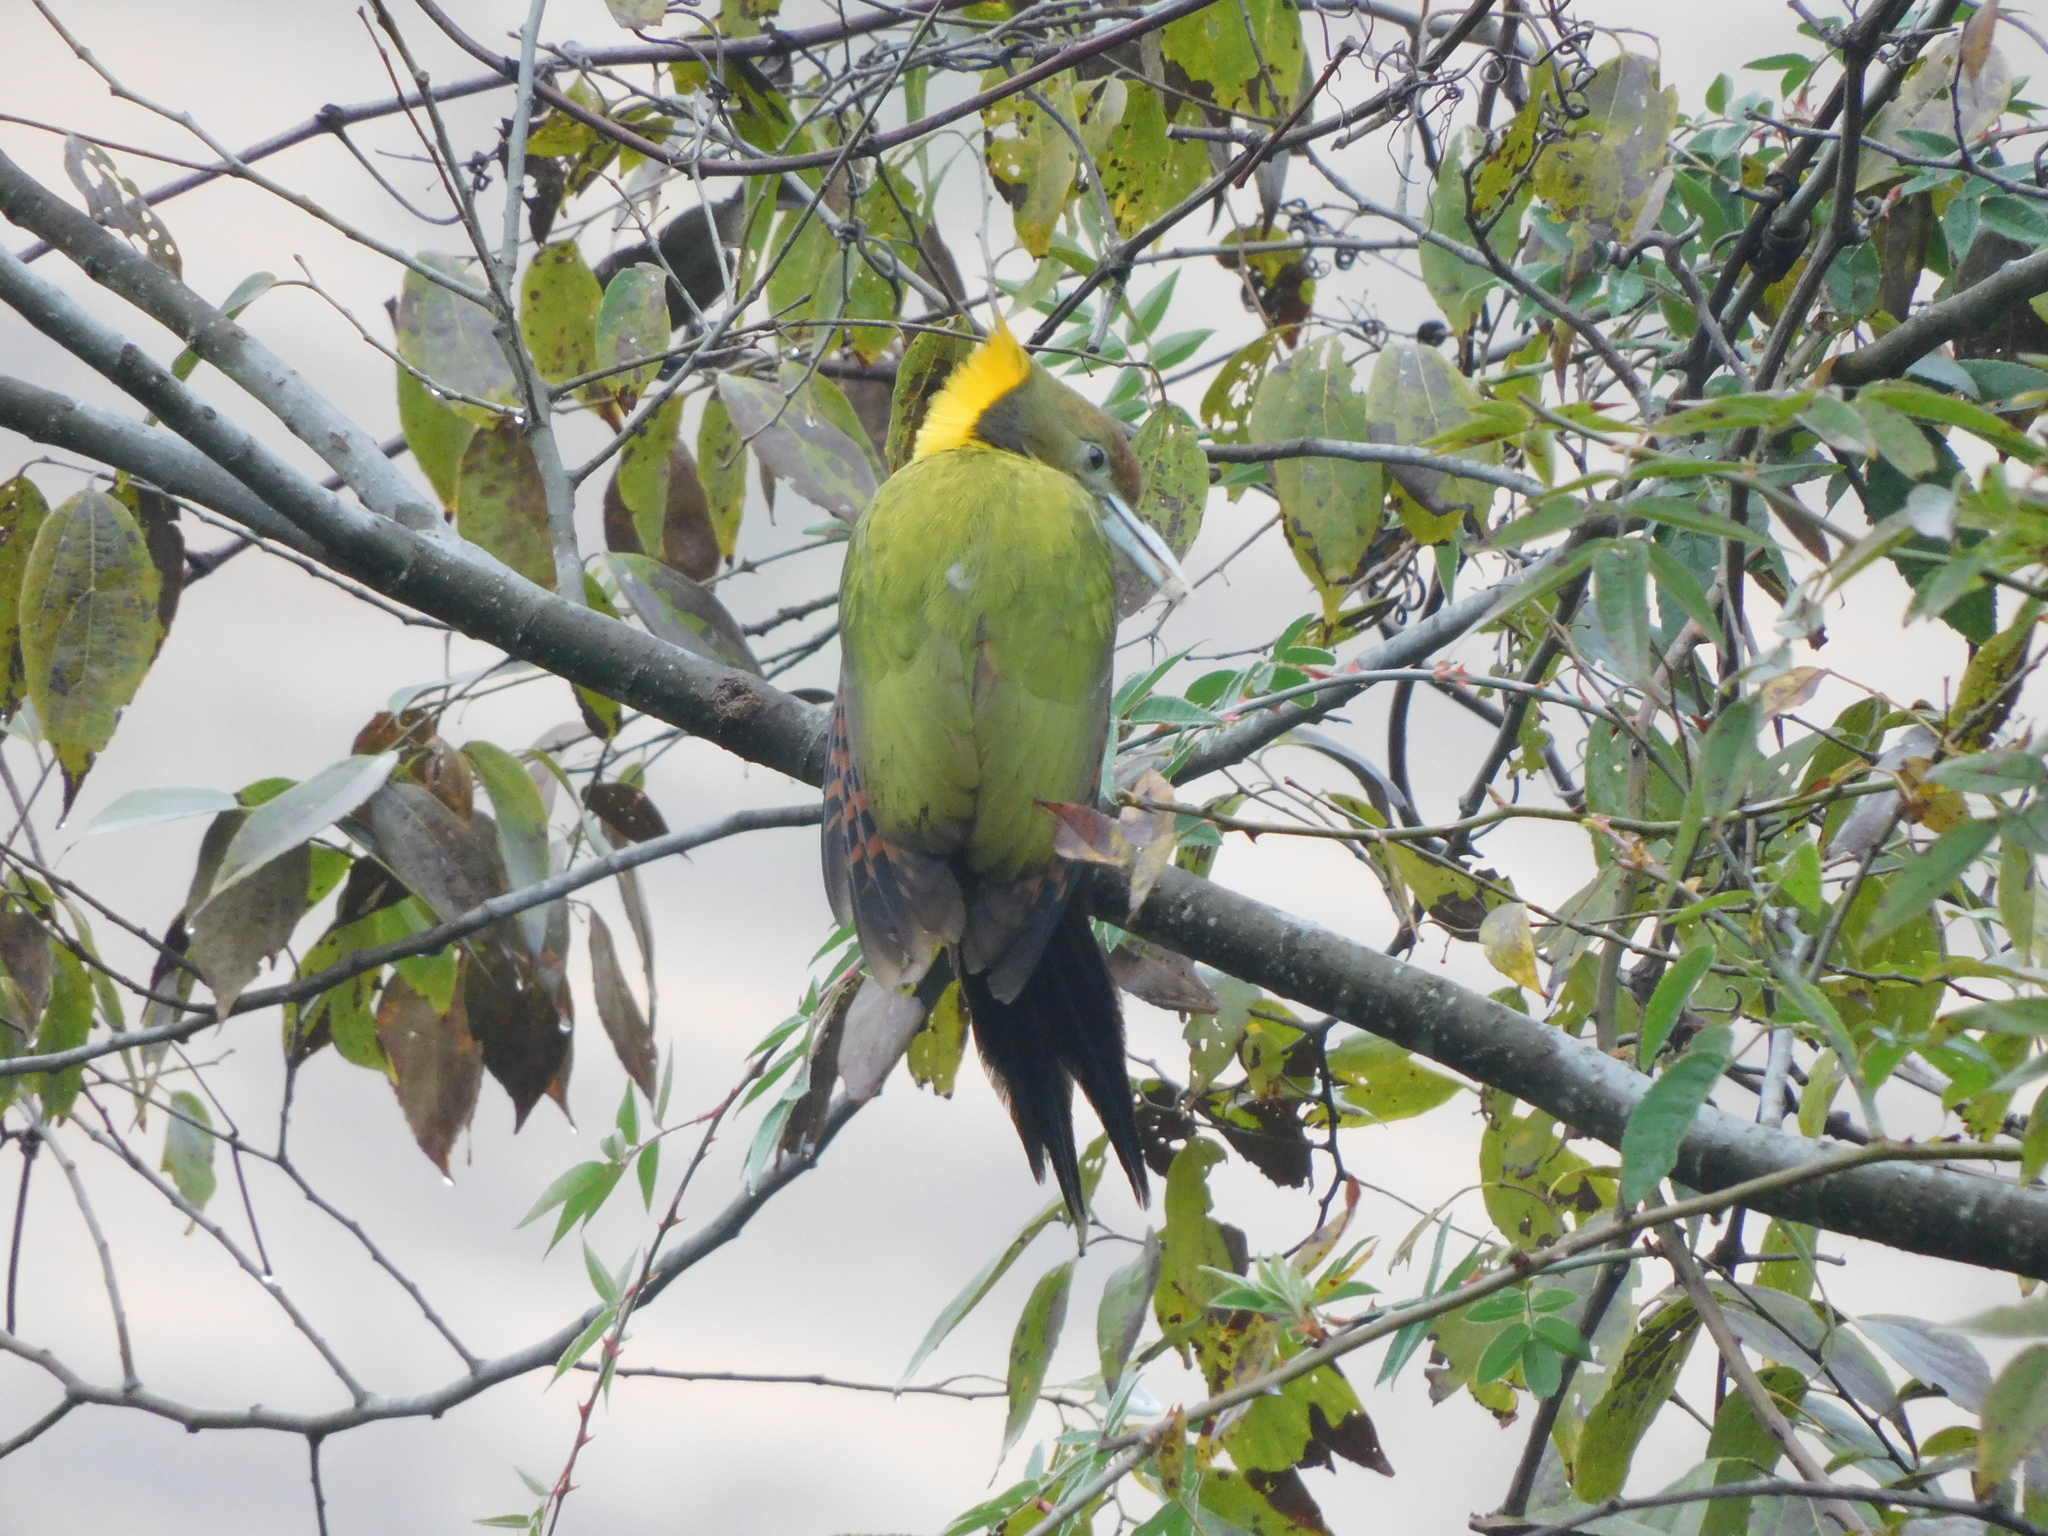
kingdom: Animalia
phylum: Chordata
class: Aves
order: Piciformes
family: Picidae
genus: Chrysophlegma
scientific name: Chrysophlegma flavinucha
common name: Greater yellownape
